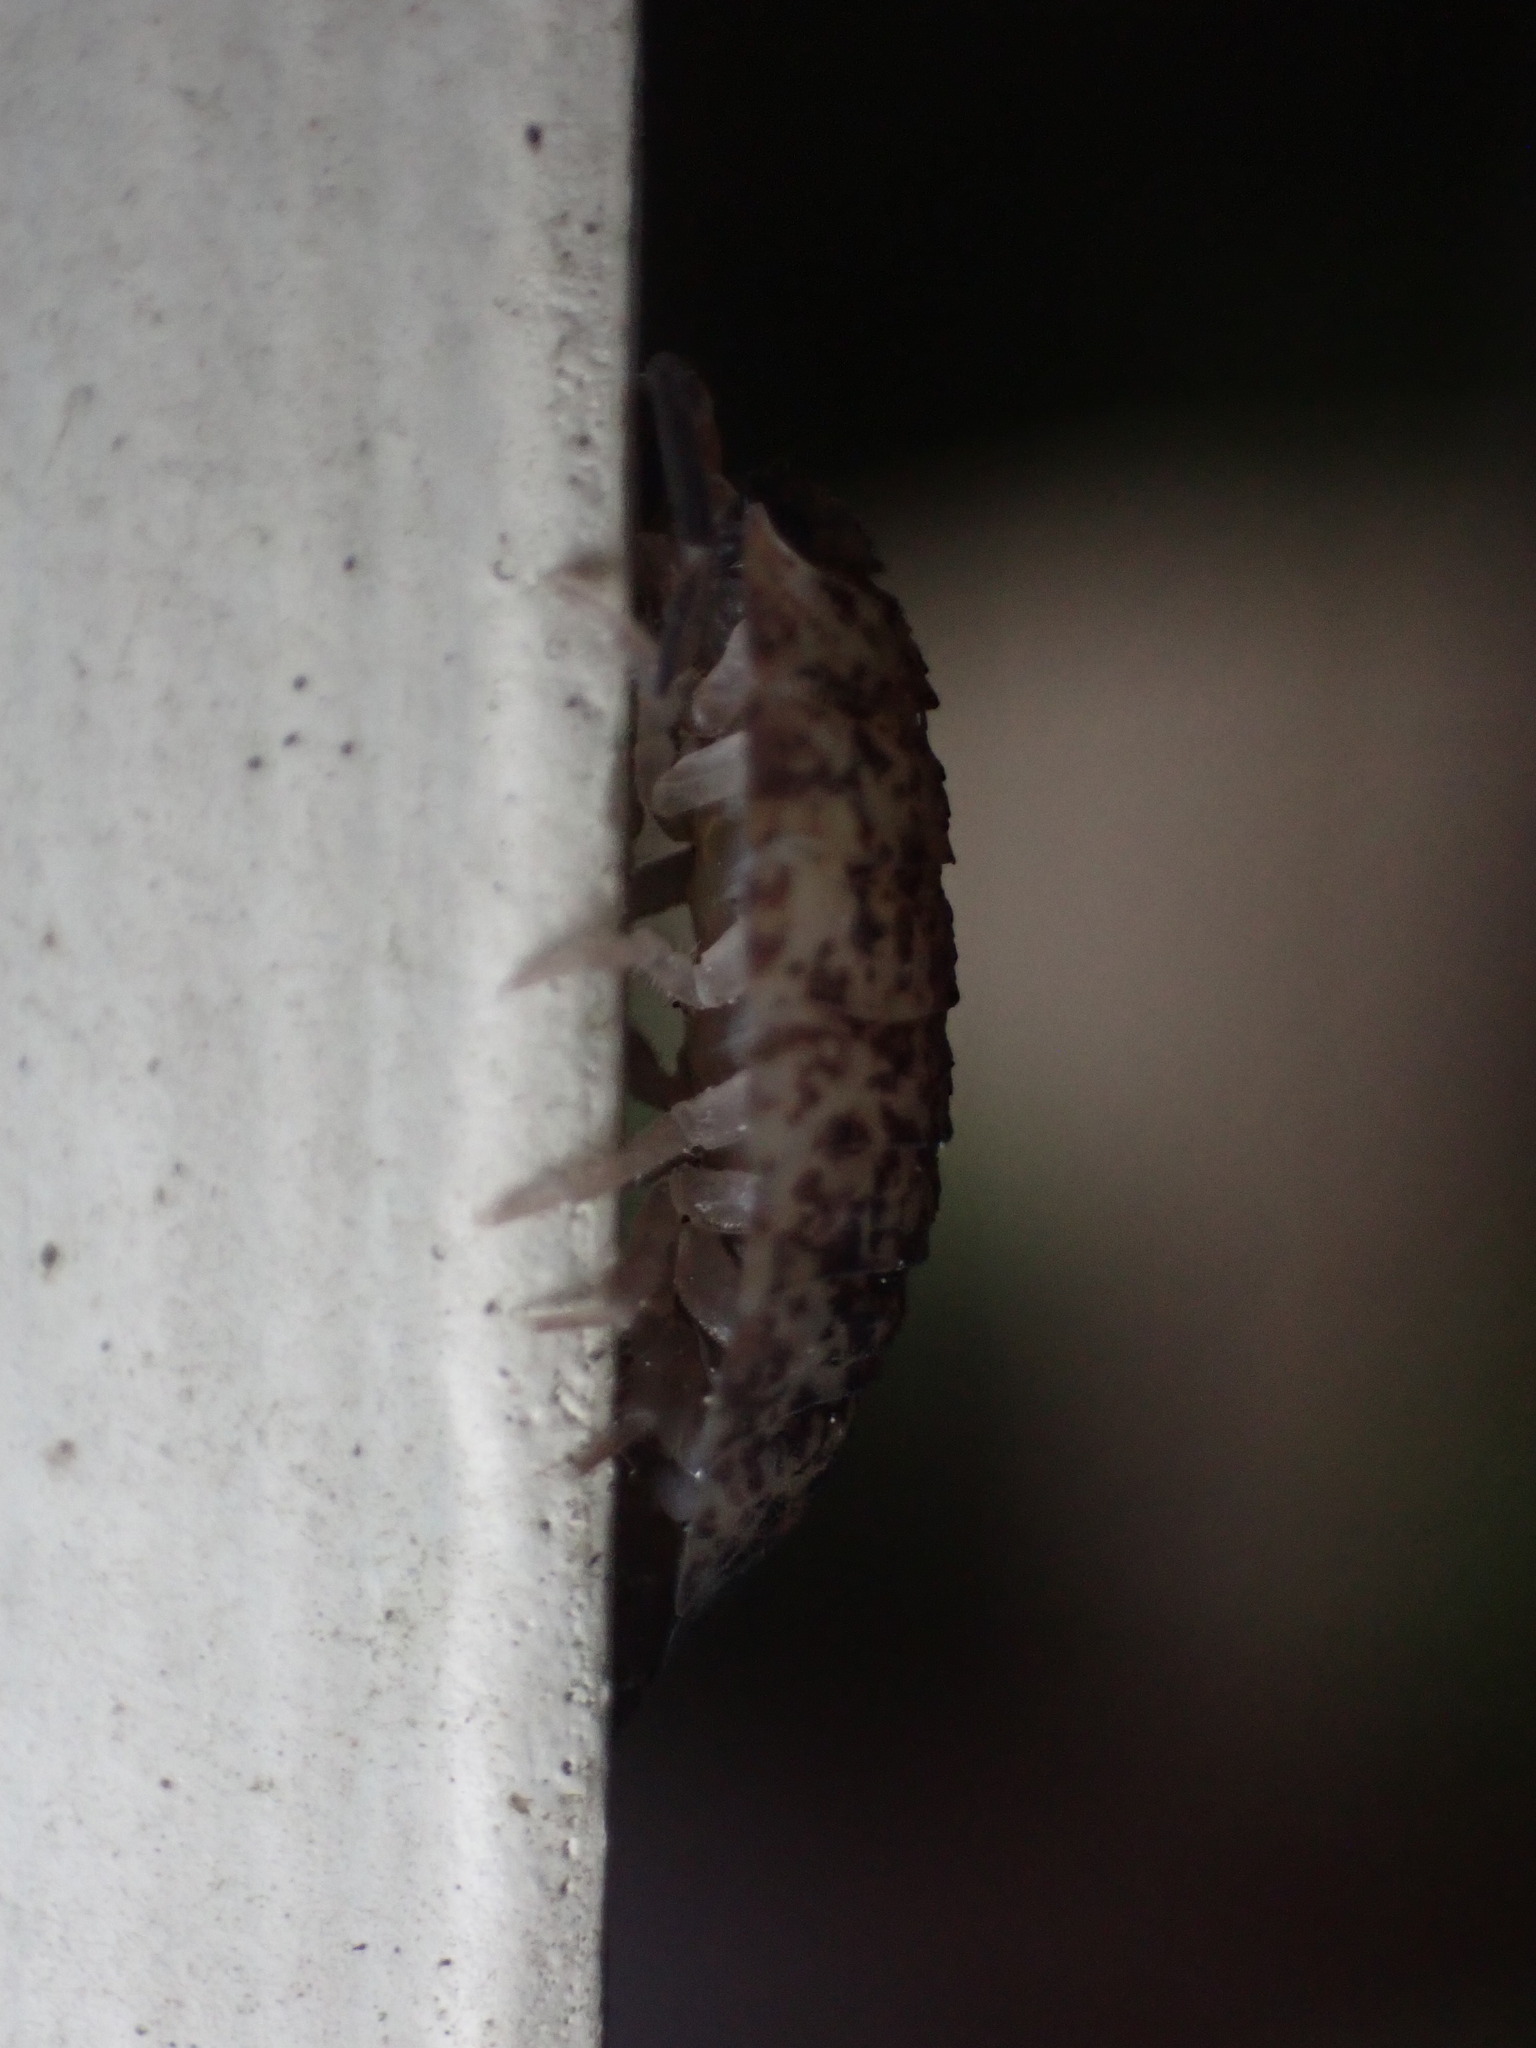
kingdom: Animalia
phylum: Arthropoda
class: Malacostraca
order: Isopoda
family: Porcellionidae
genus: Porcellio
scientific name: Porcellio scaber
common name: Common rough woodlouse
